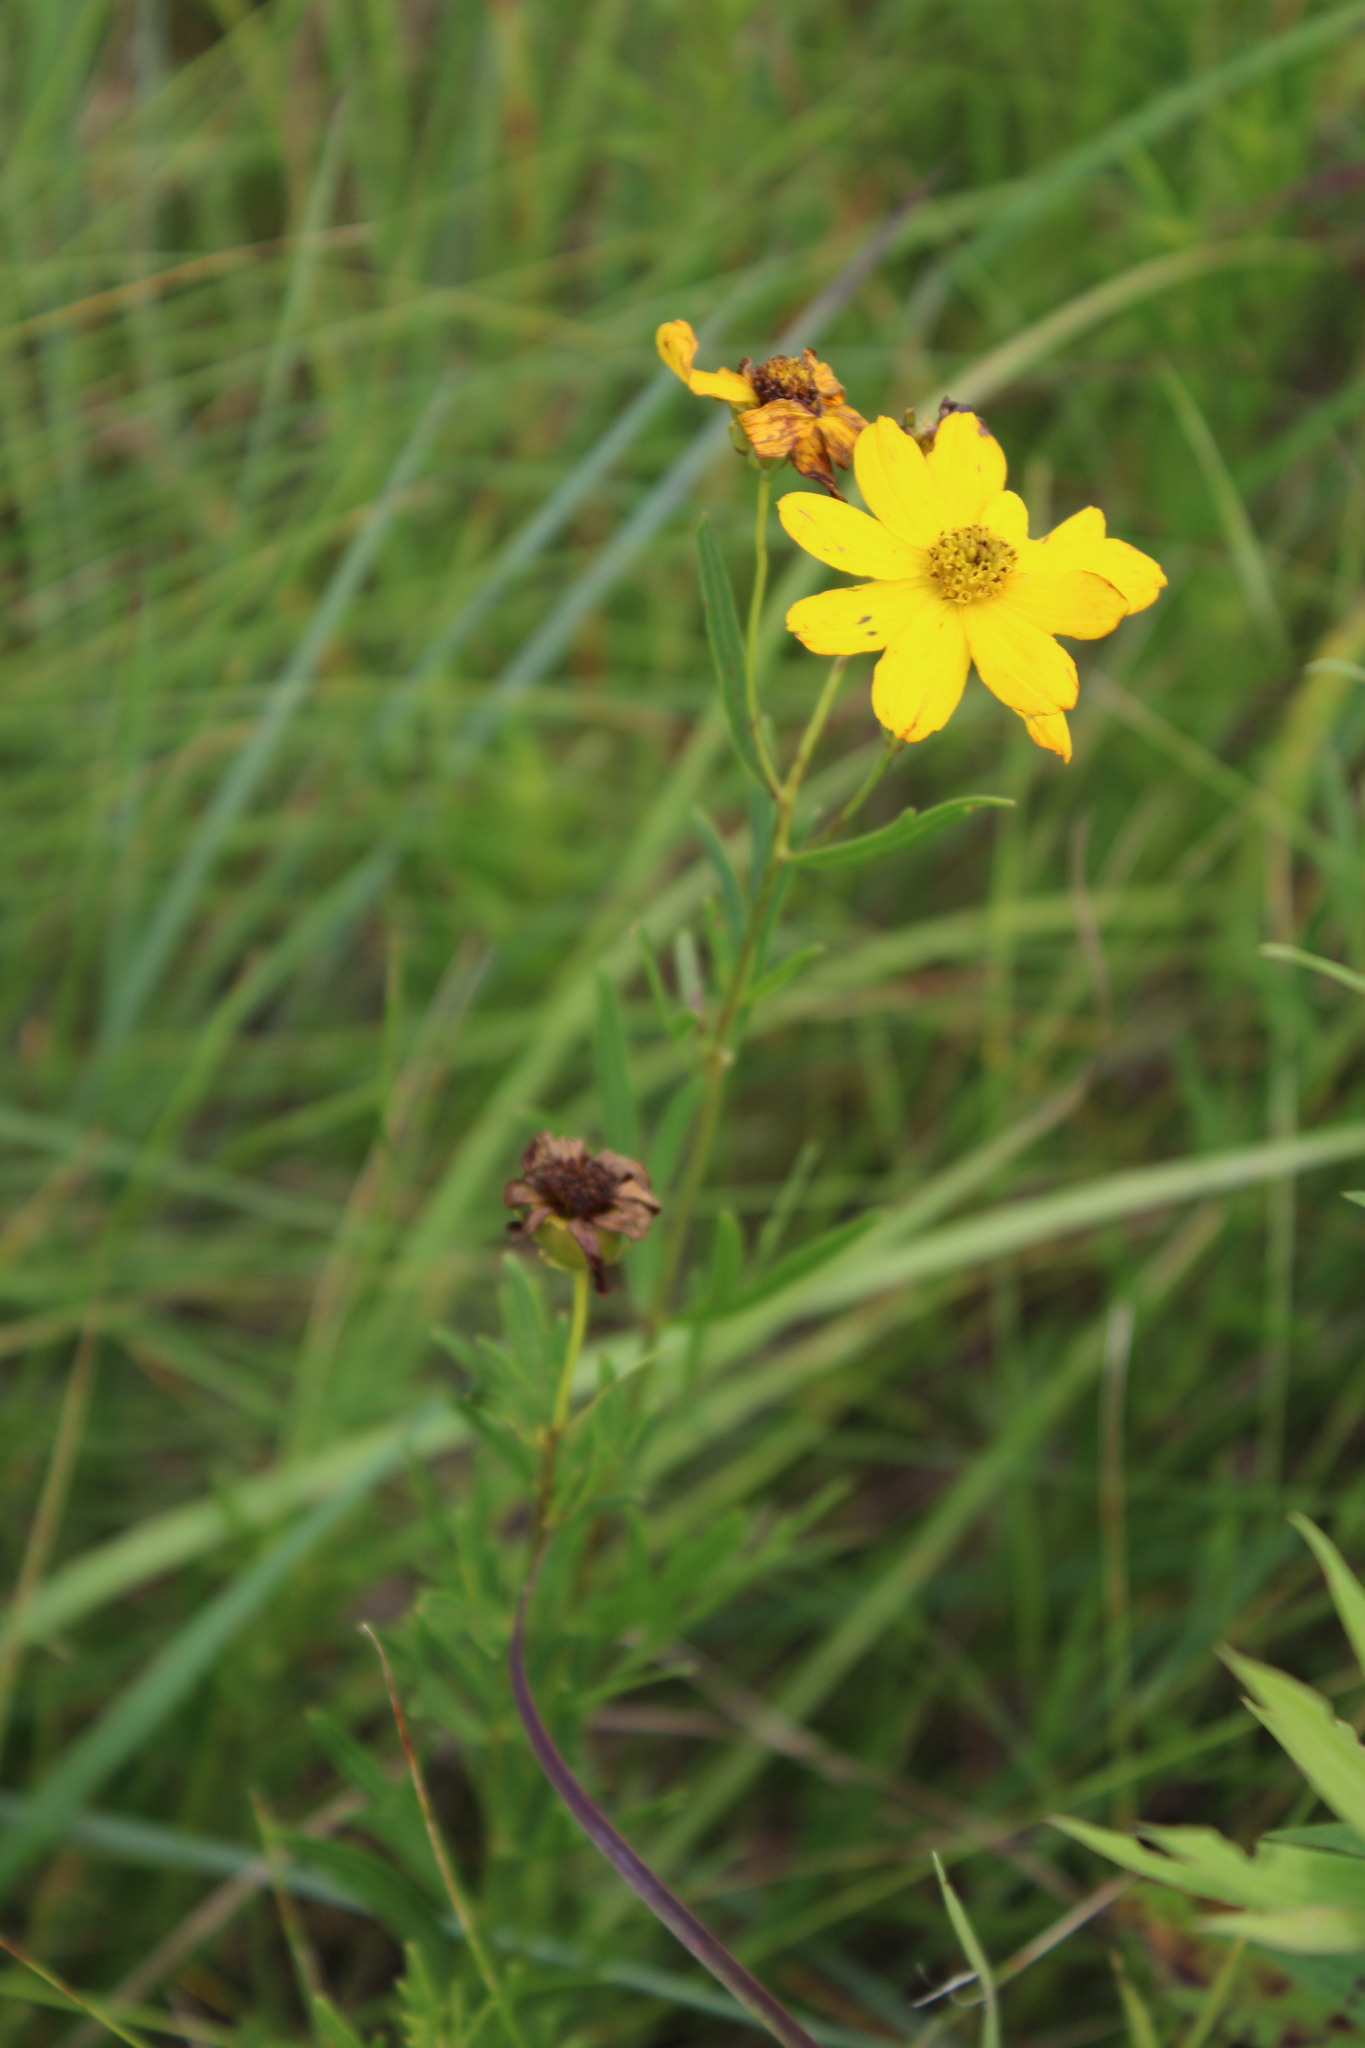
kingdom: Plantae
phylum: Tracheophyta
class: Magnoliopsida
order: Asterales
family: Asteraceae
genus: Coreopsis
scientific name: Coreopsis palmata
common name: Prairie coreopsis
